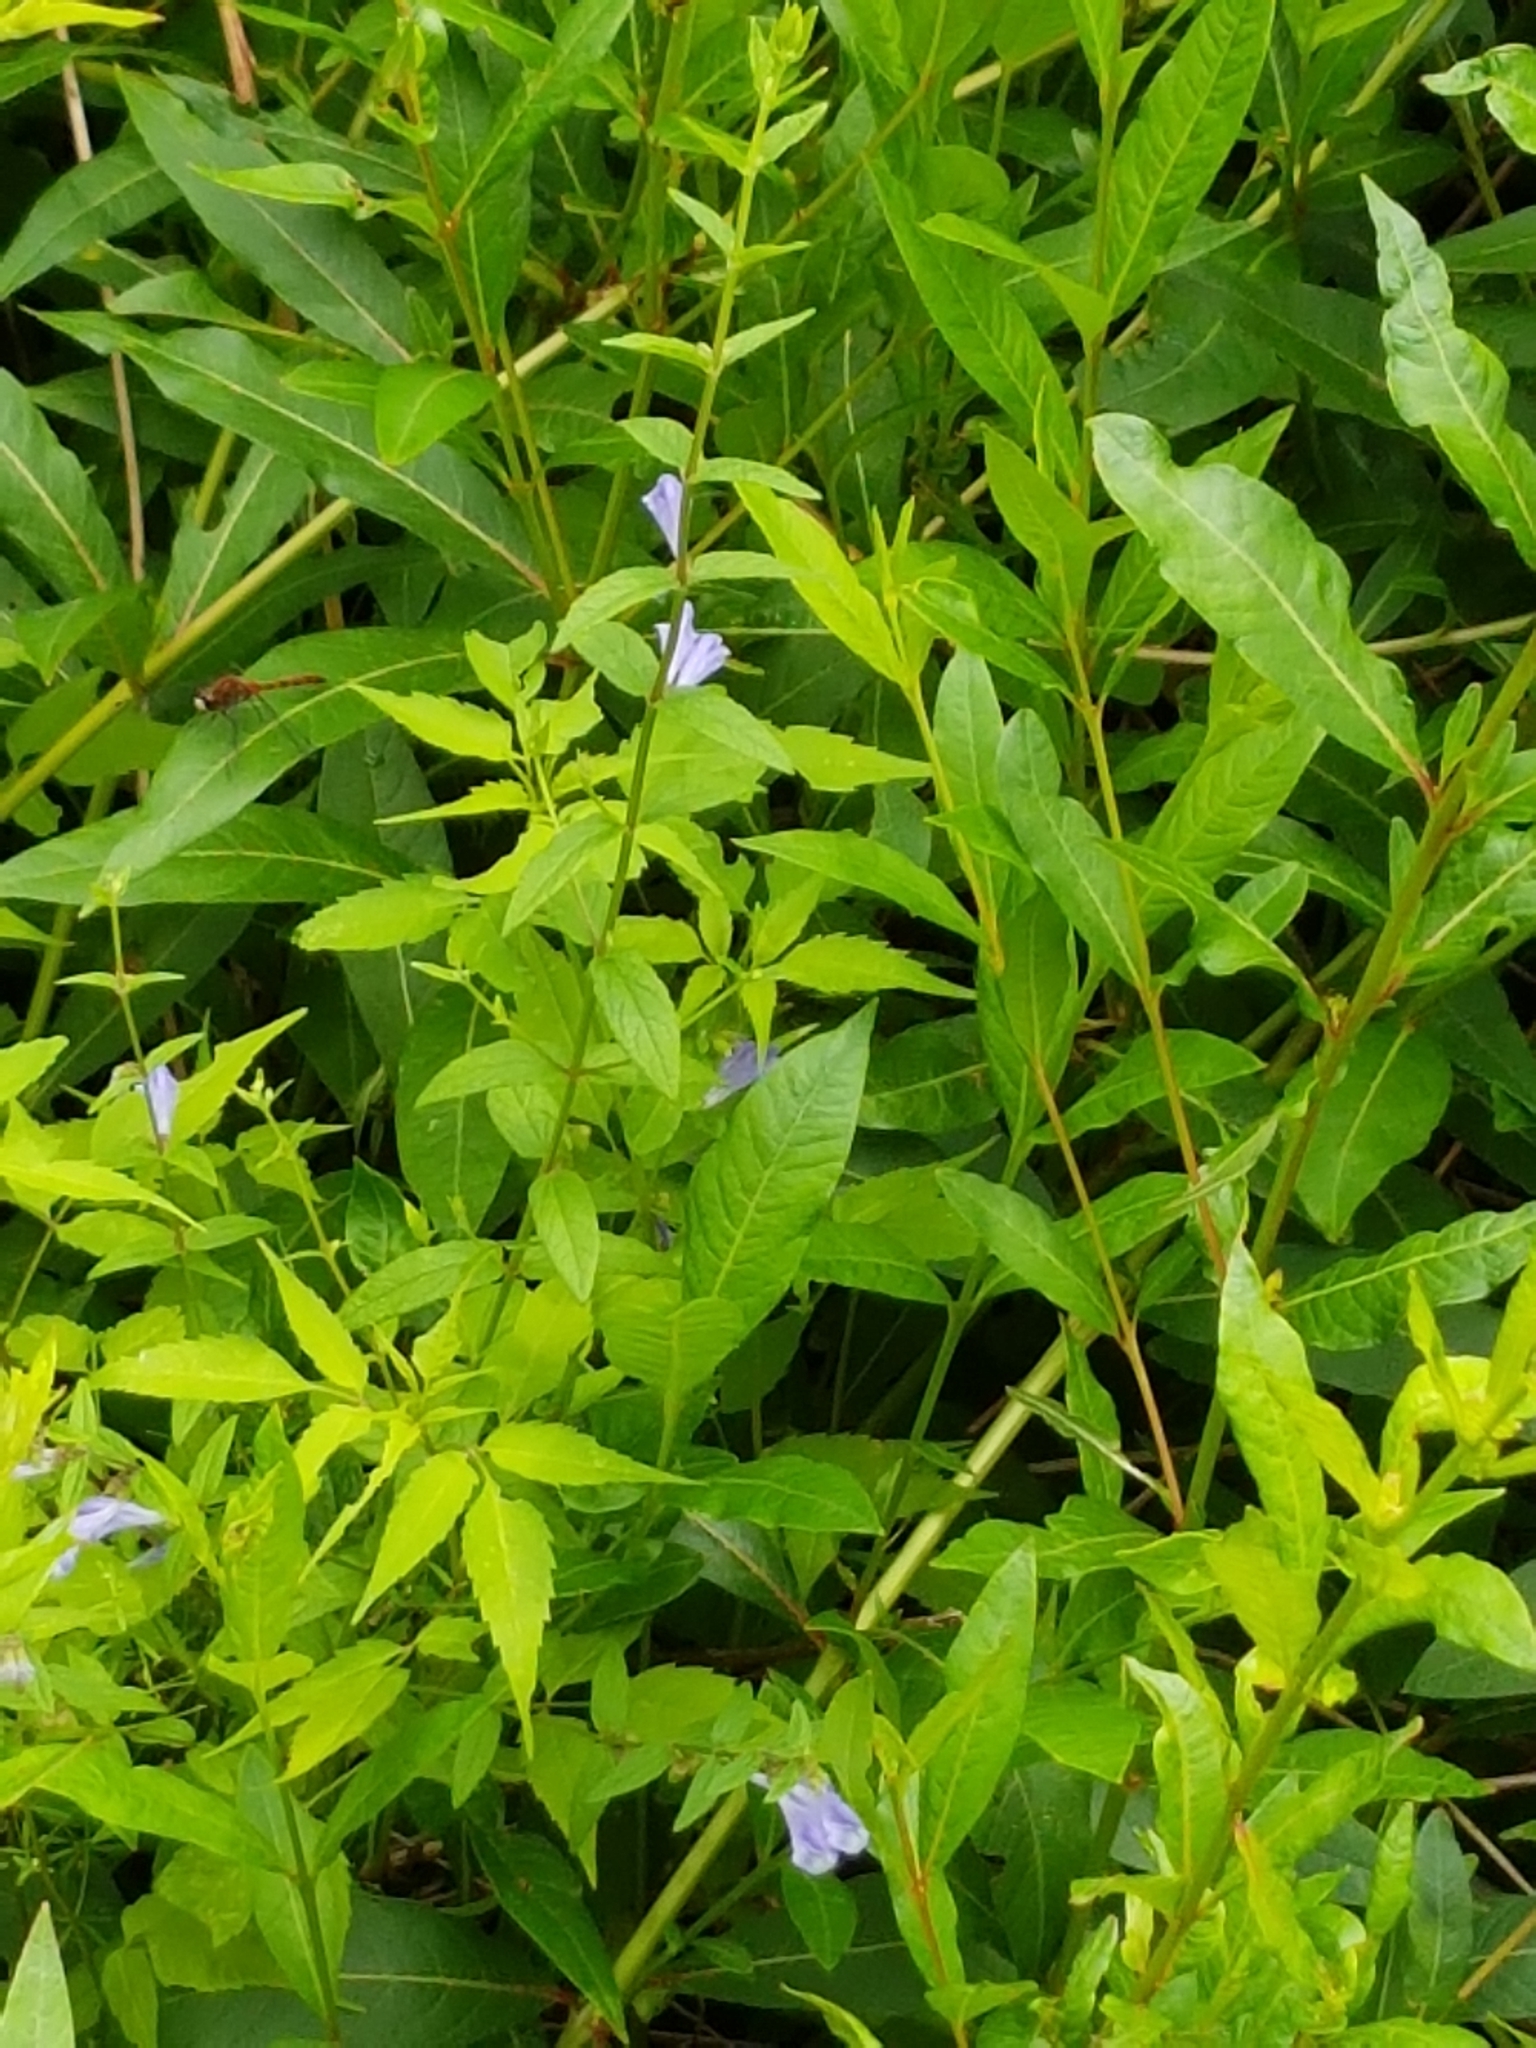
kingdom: Plantae
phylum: Tracheophyta
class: Magnoliopsida
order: Lamiales
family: Lamiaceae
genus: Scutellaria
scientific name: Scutellaria galericulata
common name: Skullcap
